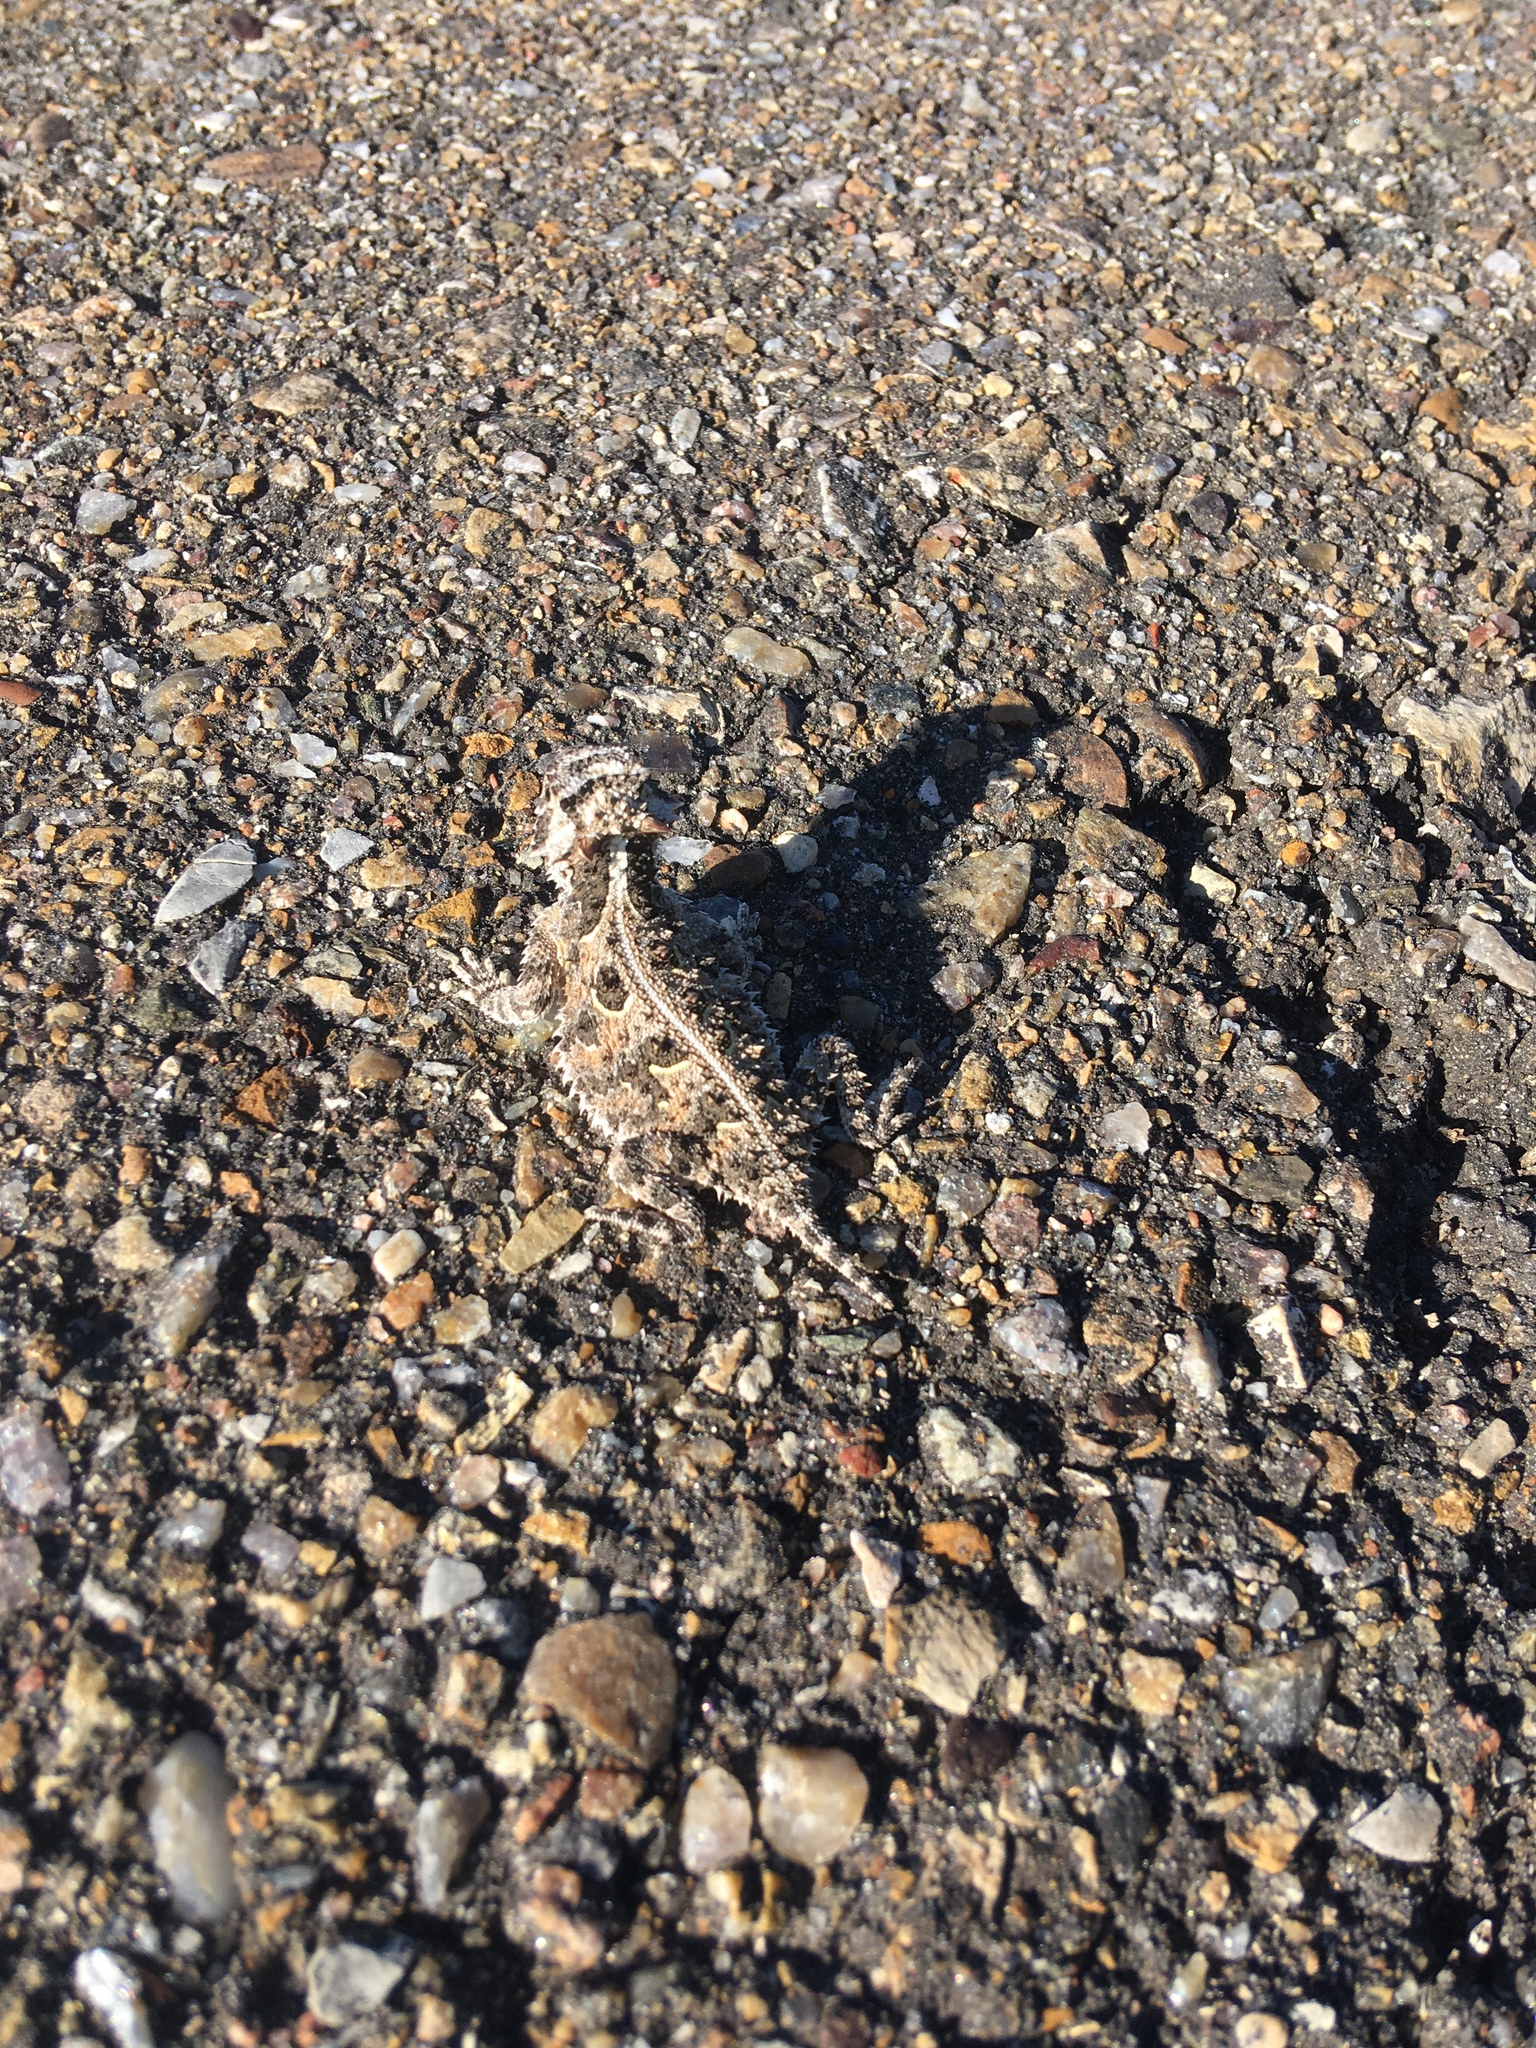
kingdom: Animalia
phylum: Chordata
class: Squamata
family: Phrynosomatidae
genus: Phrynosoma
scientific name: Phrynosoma cornutum
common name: Texas horned lizard
